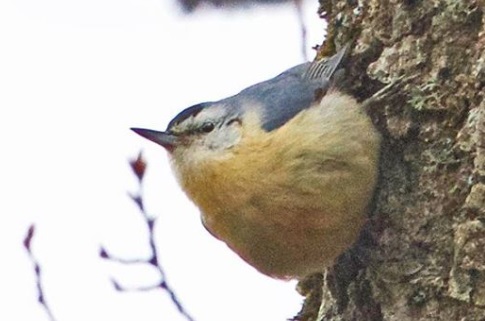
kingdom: Animalia
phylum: Chordata
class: Aves
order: Passeriformes
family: Sittidae
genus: Sitta
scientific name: Sitta ledanti
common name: Algerian nuthatch
